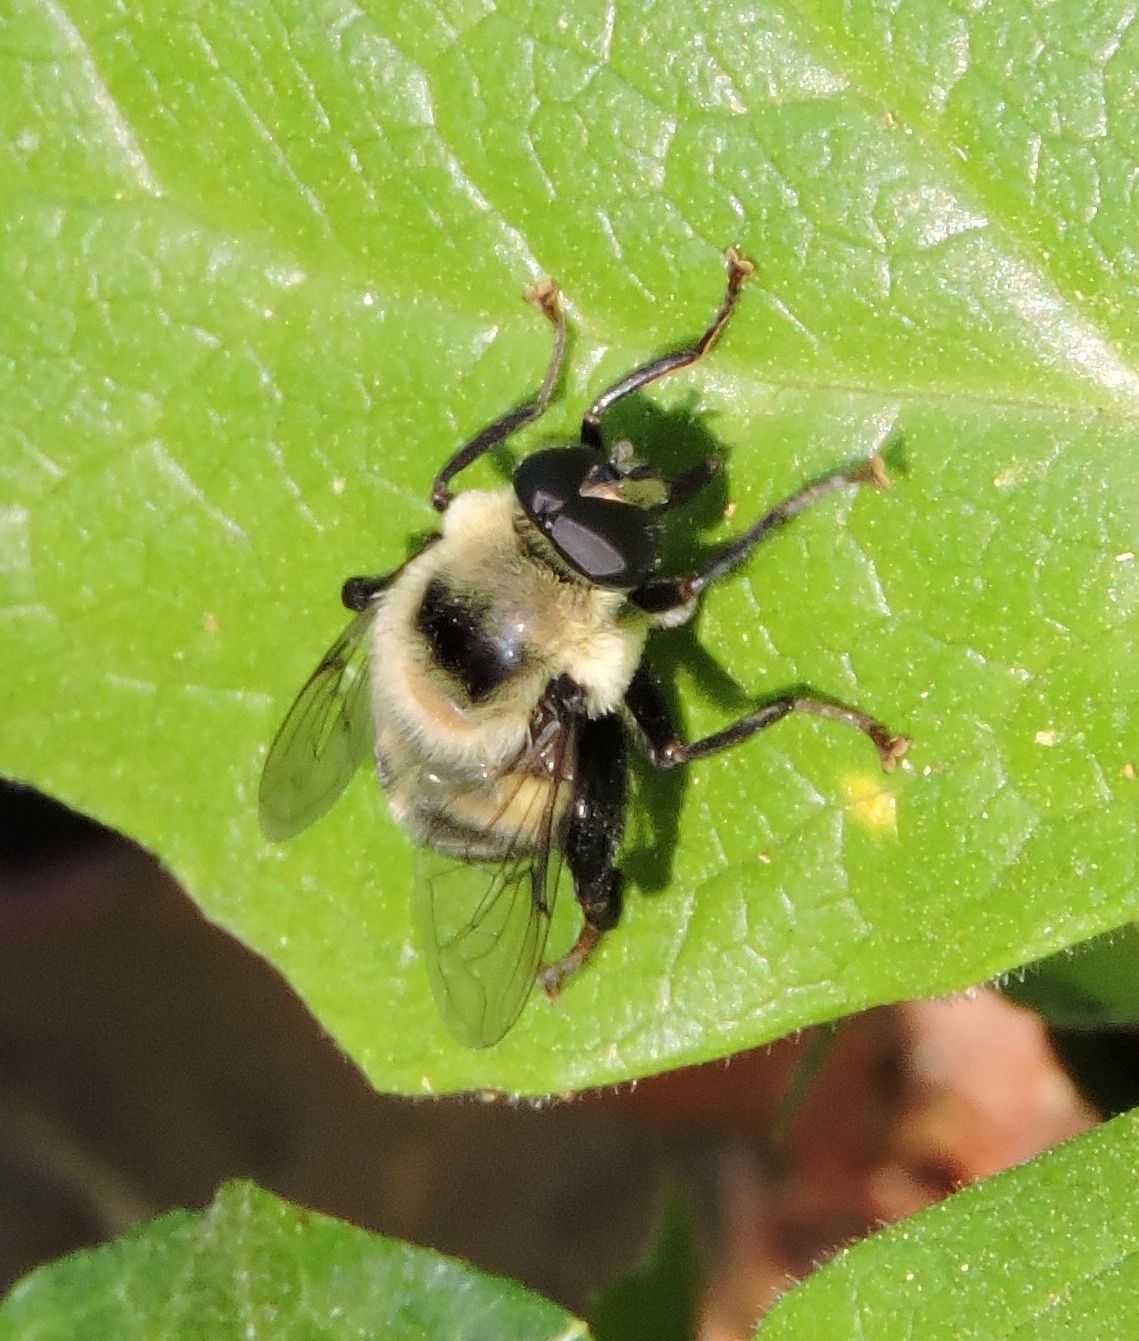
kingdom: Animalia
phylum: Arthropoda
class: Insecta
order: Diptera
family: Syrphidae
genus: Imatisma
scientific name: Imatisma posticata
